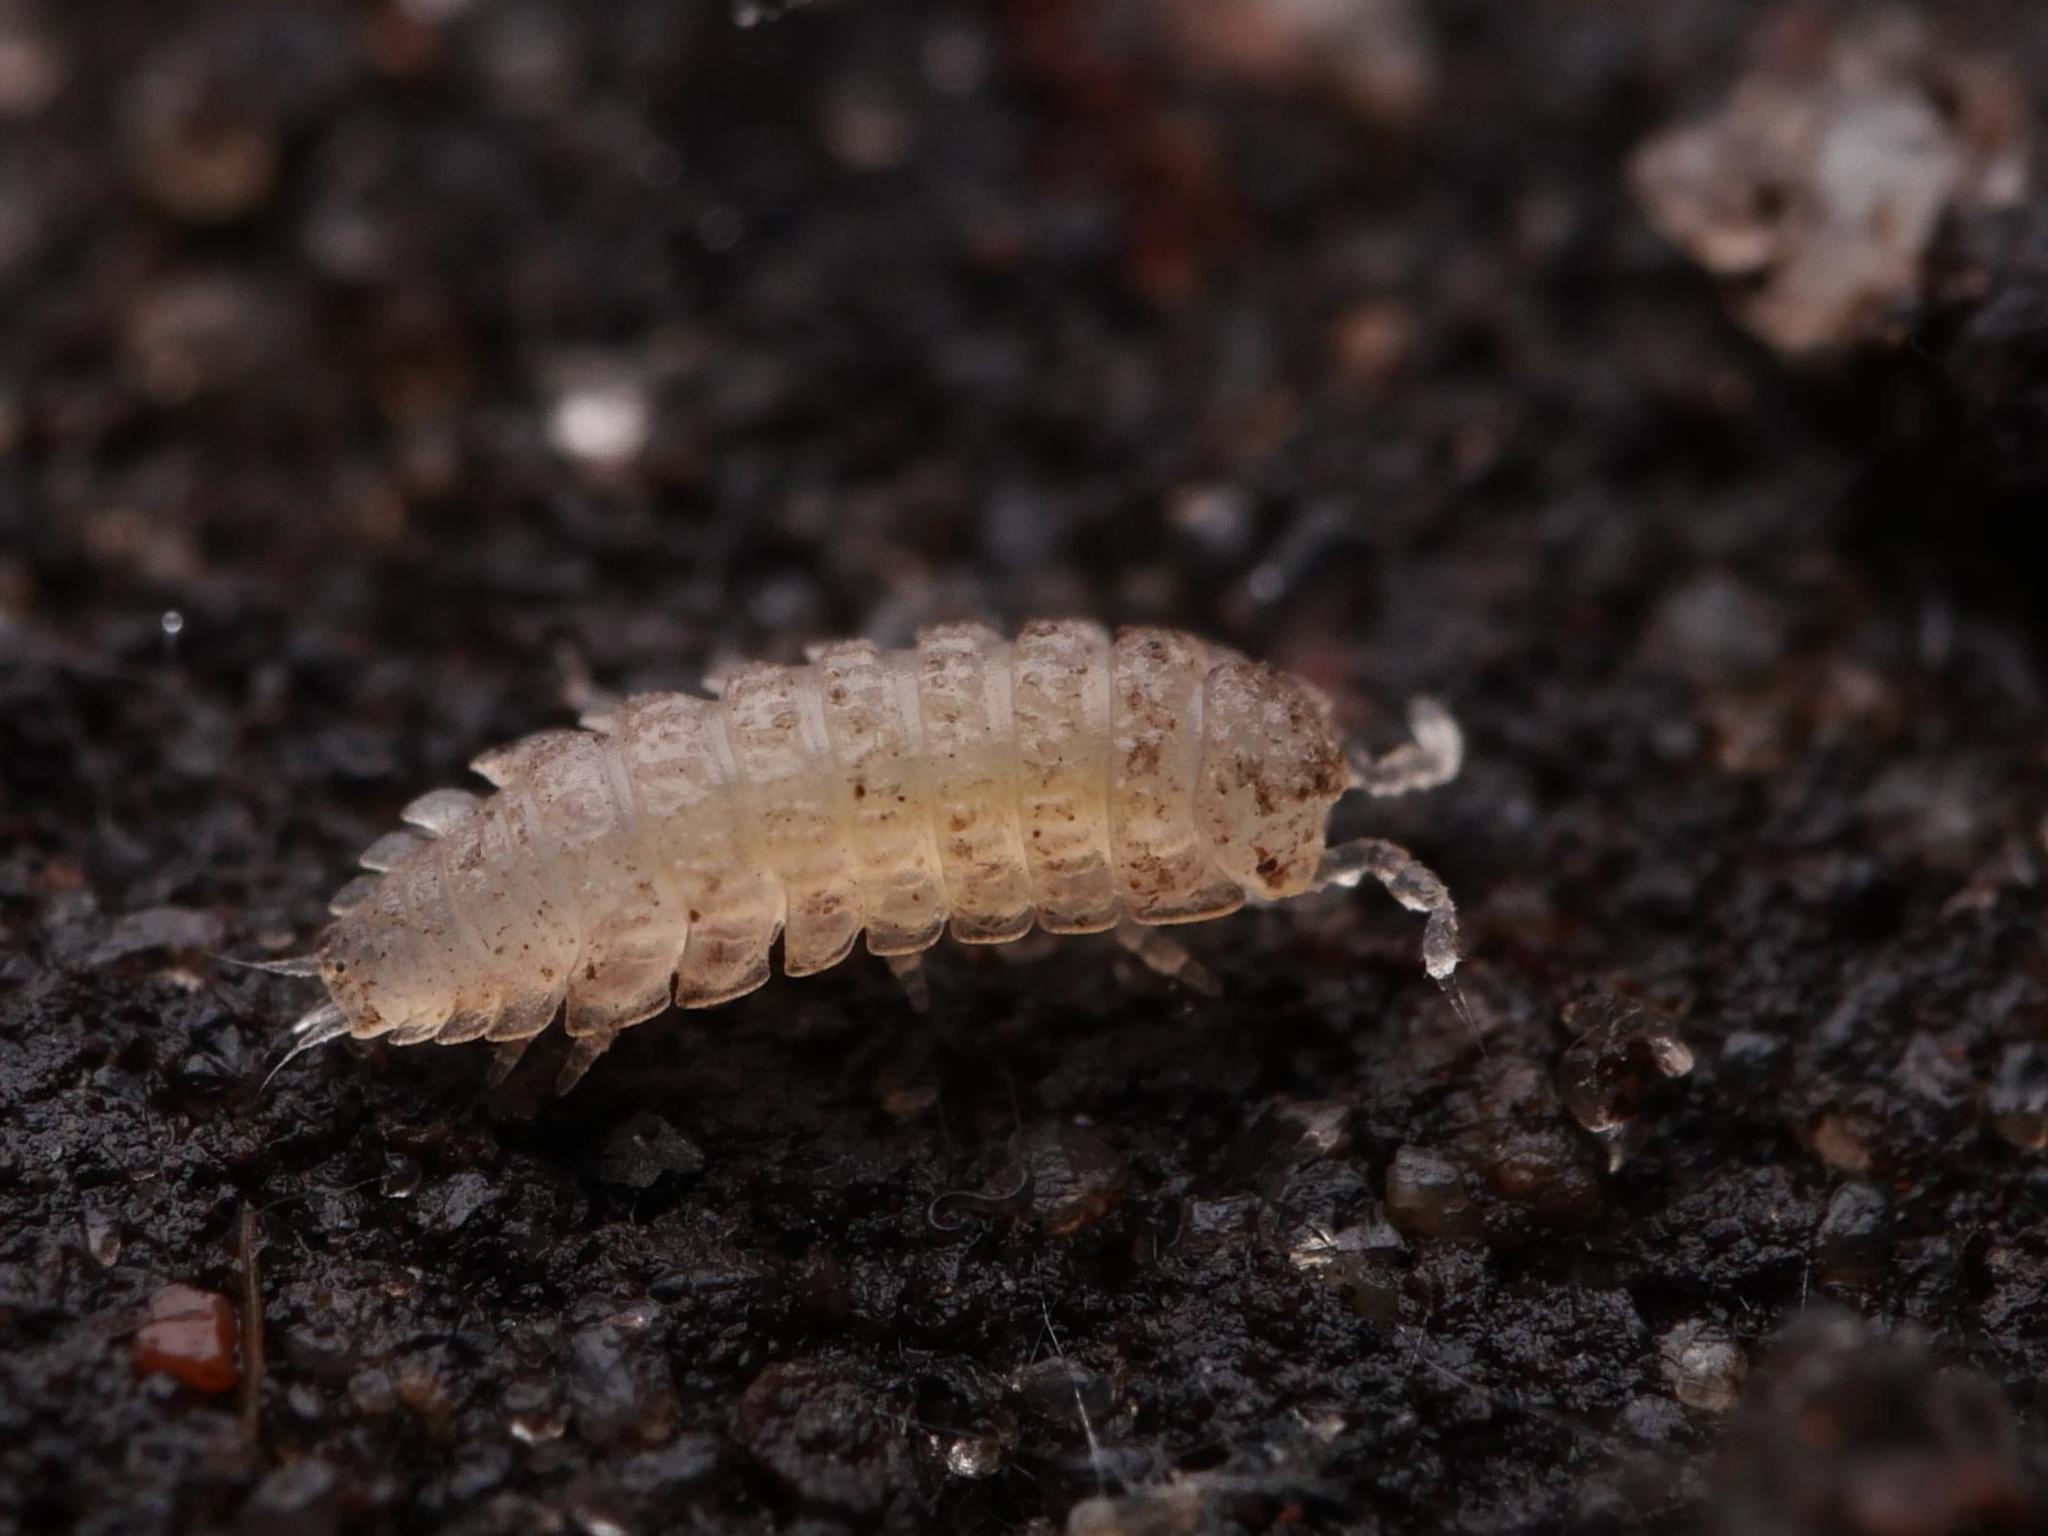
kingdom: Animalia
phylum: Arthropoda
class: Malacostraca
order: Isopoda
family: Trichoniscidae
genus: Haplophthalmus
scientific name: Haplophthalmus danicus
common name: Pillbug
